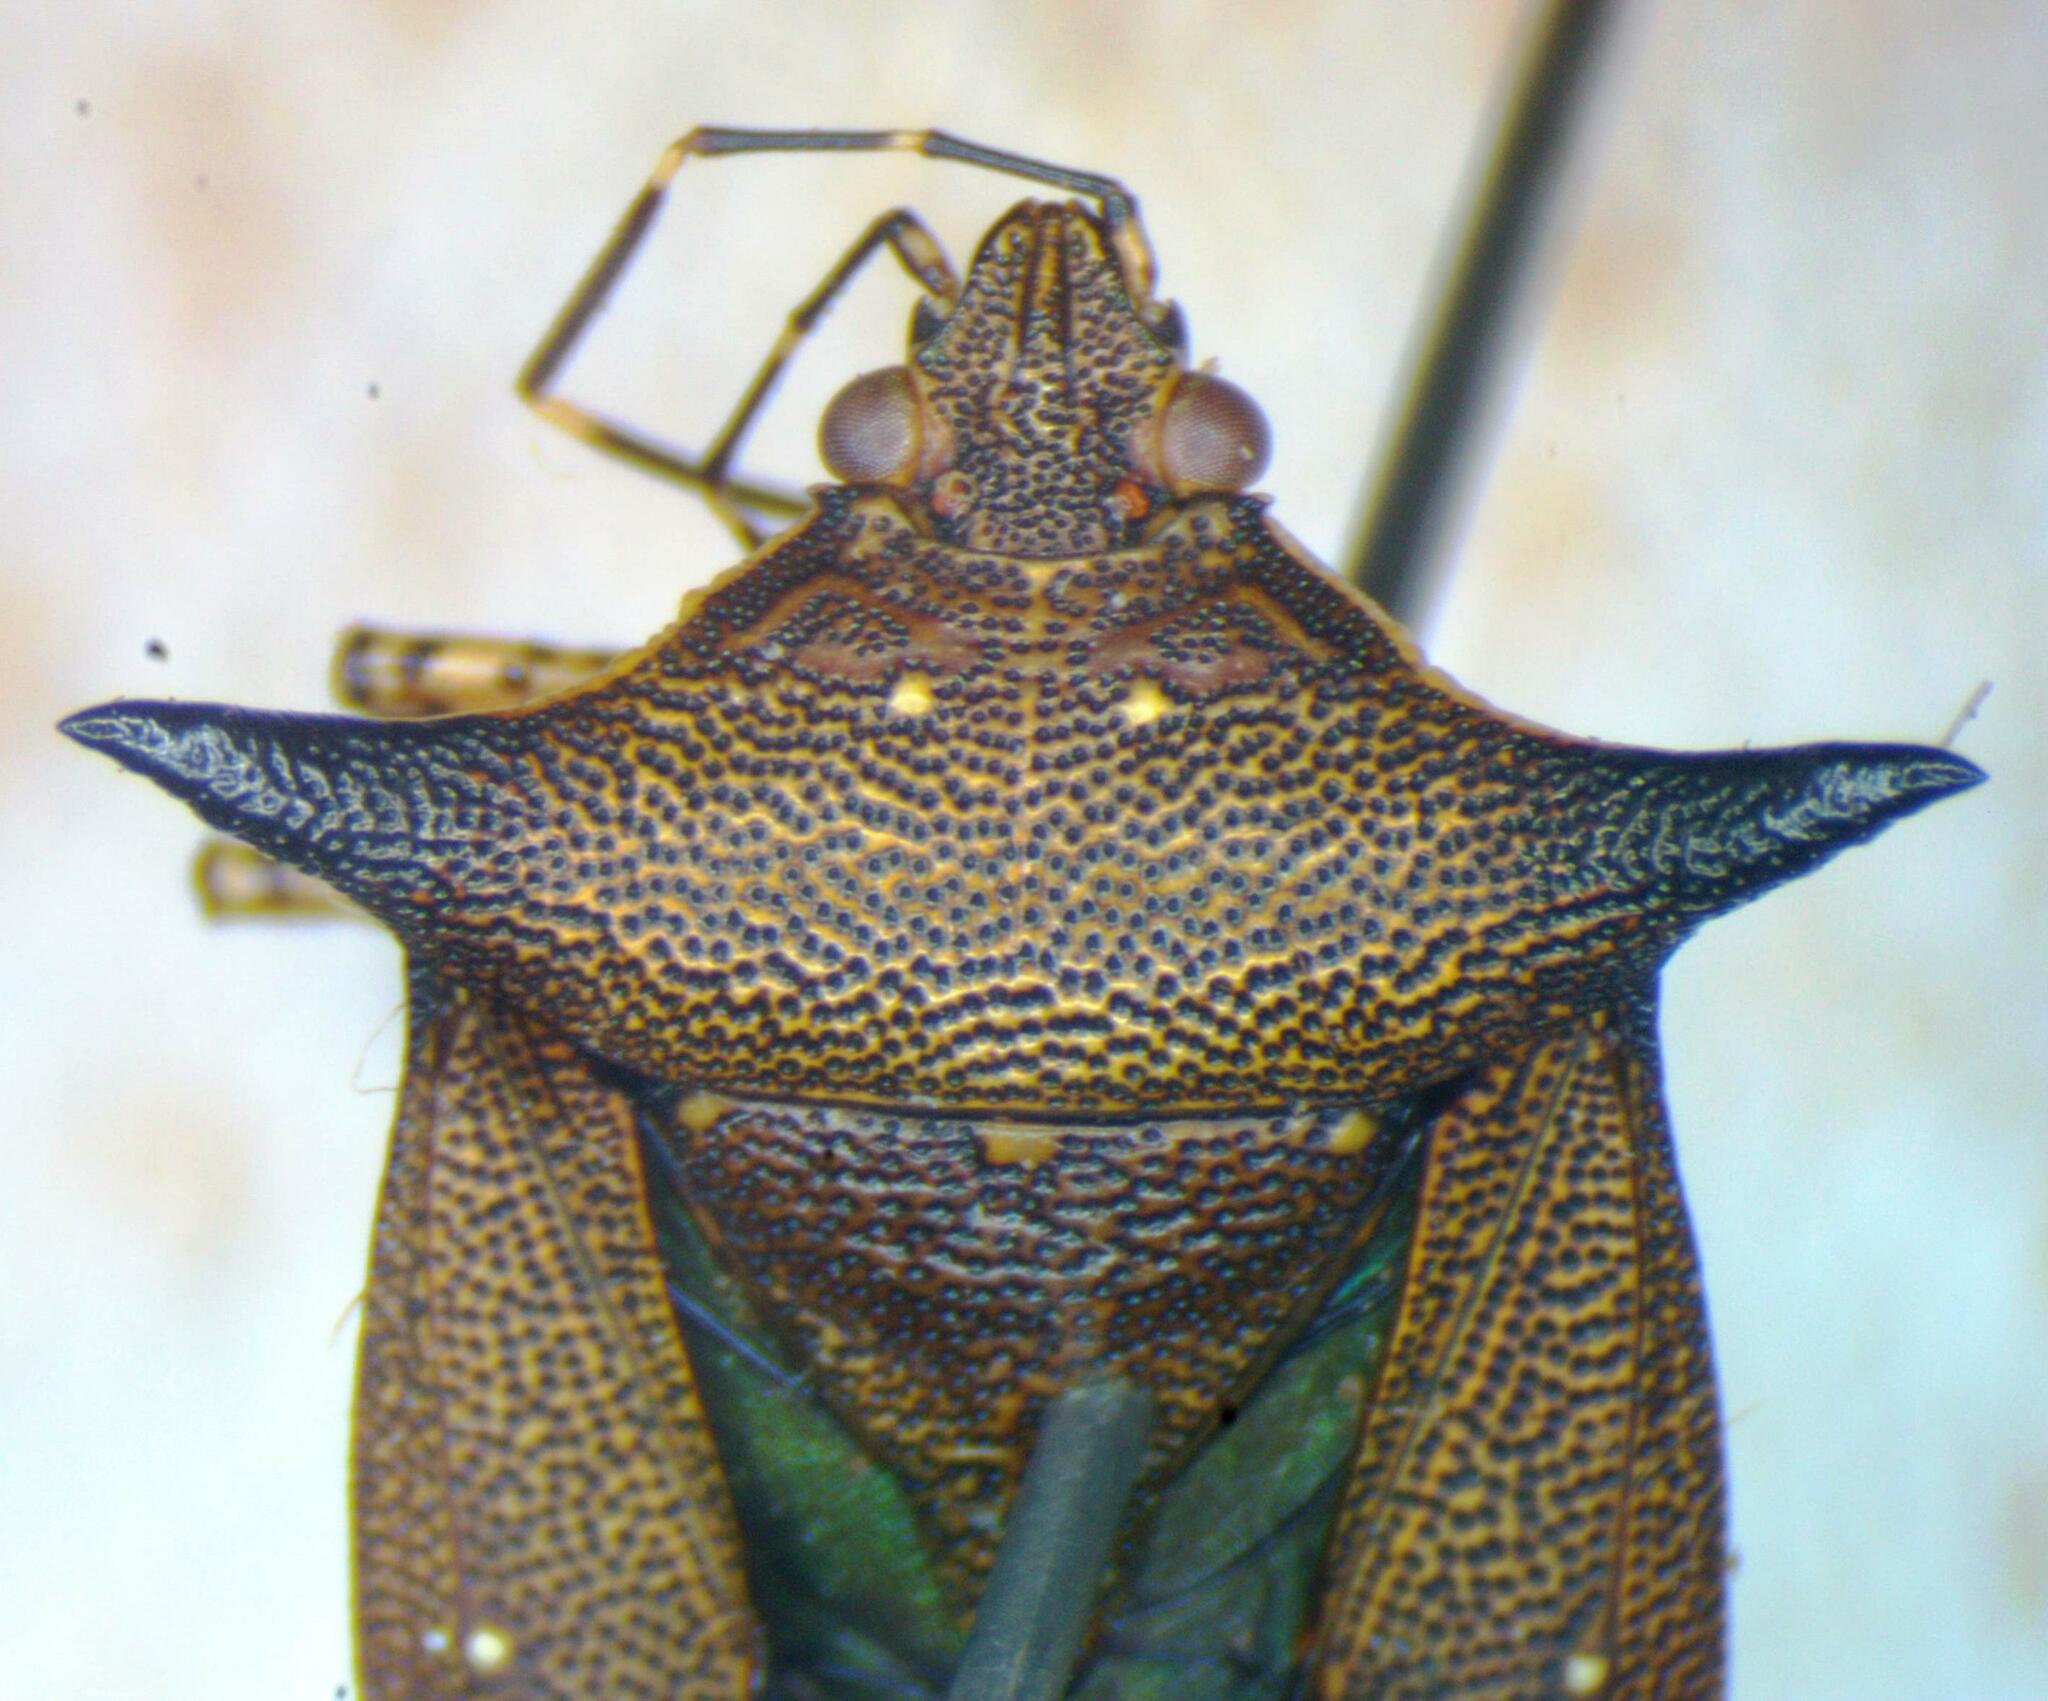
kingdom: Animalia
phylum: Arthropoda
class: Insecta
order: Hemiptera
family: Pentatomidae
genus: Sibaria
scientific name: Sibaria englemani
